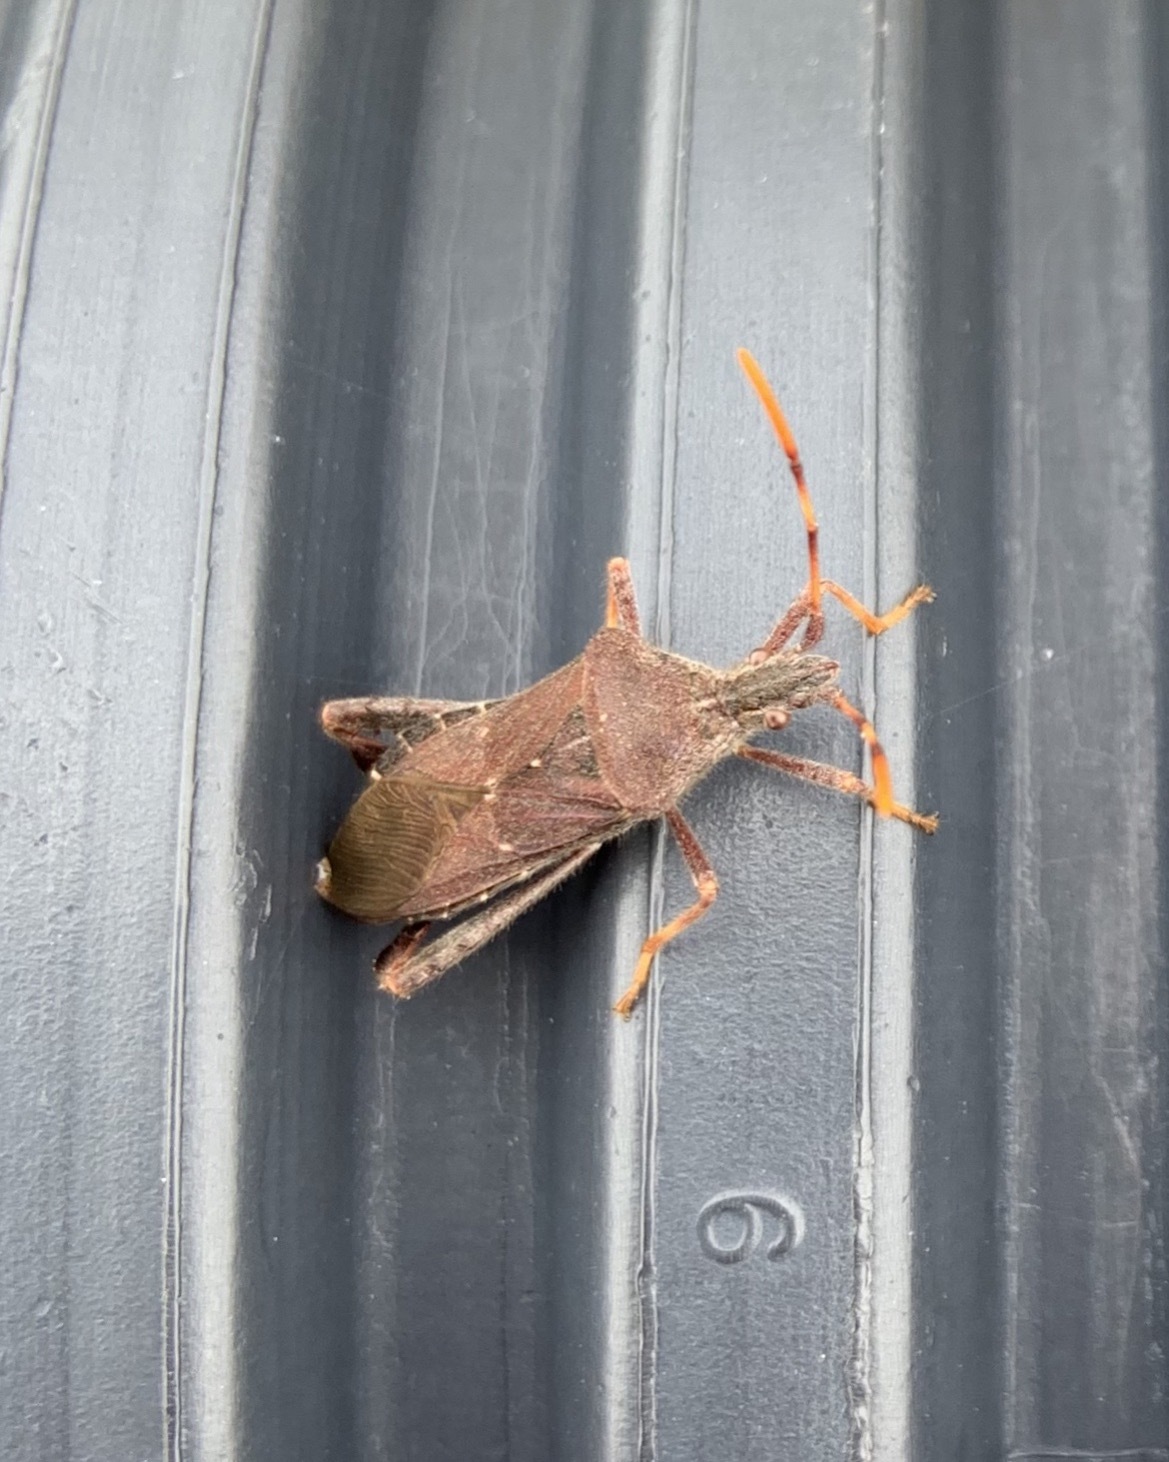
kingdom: Animalia
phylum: Arthropoda
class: Insecta
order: Hemiptera
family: Coreidae
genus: Leptoglossus
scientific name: Leptoglossus oppositus
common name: Northern leaf-footed bug
